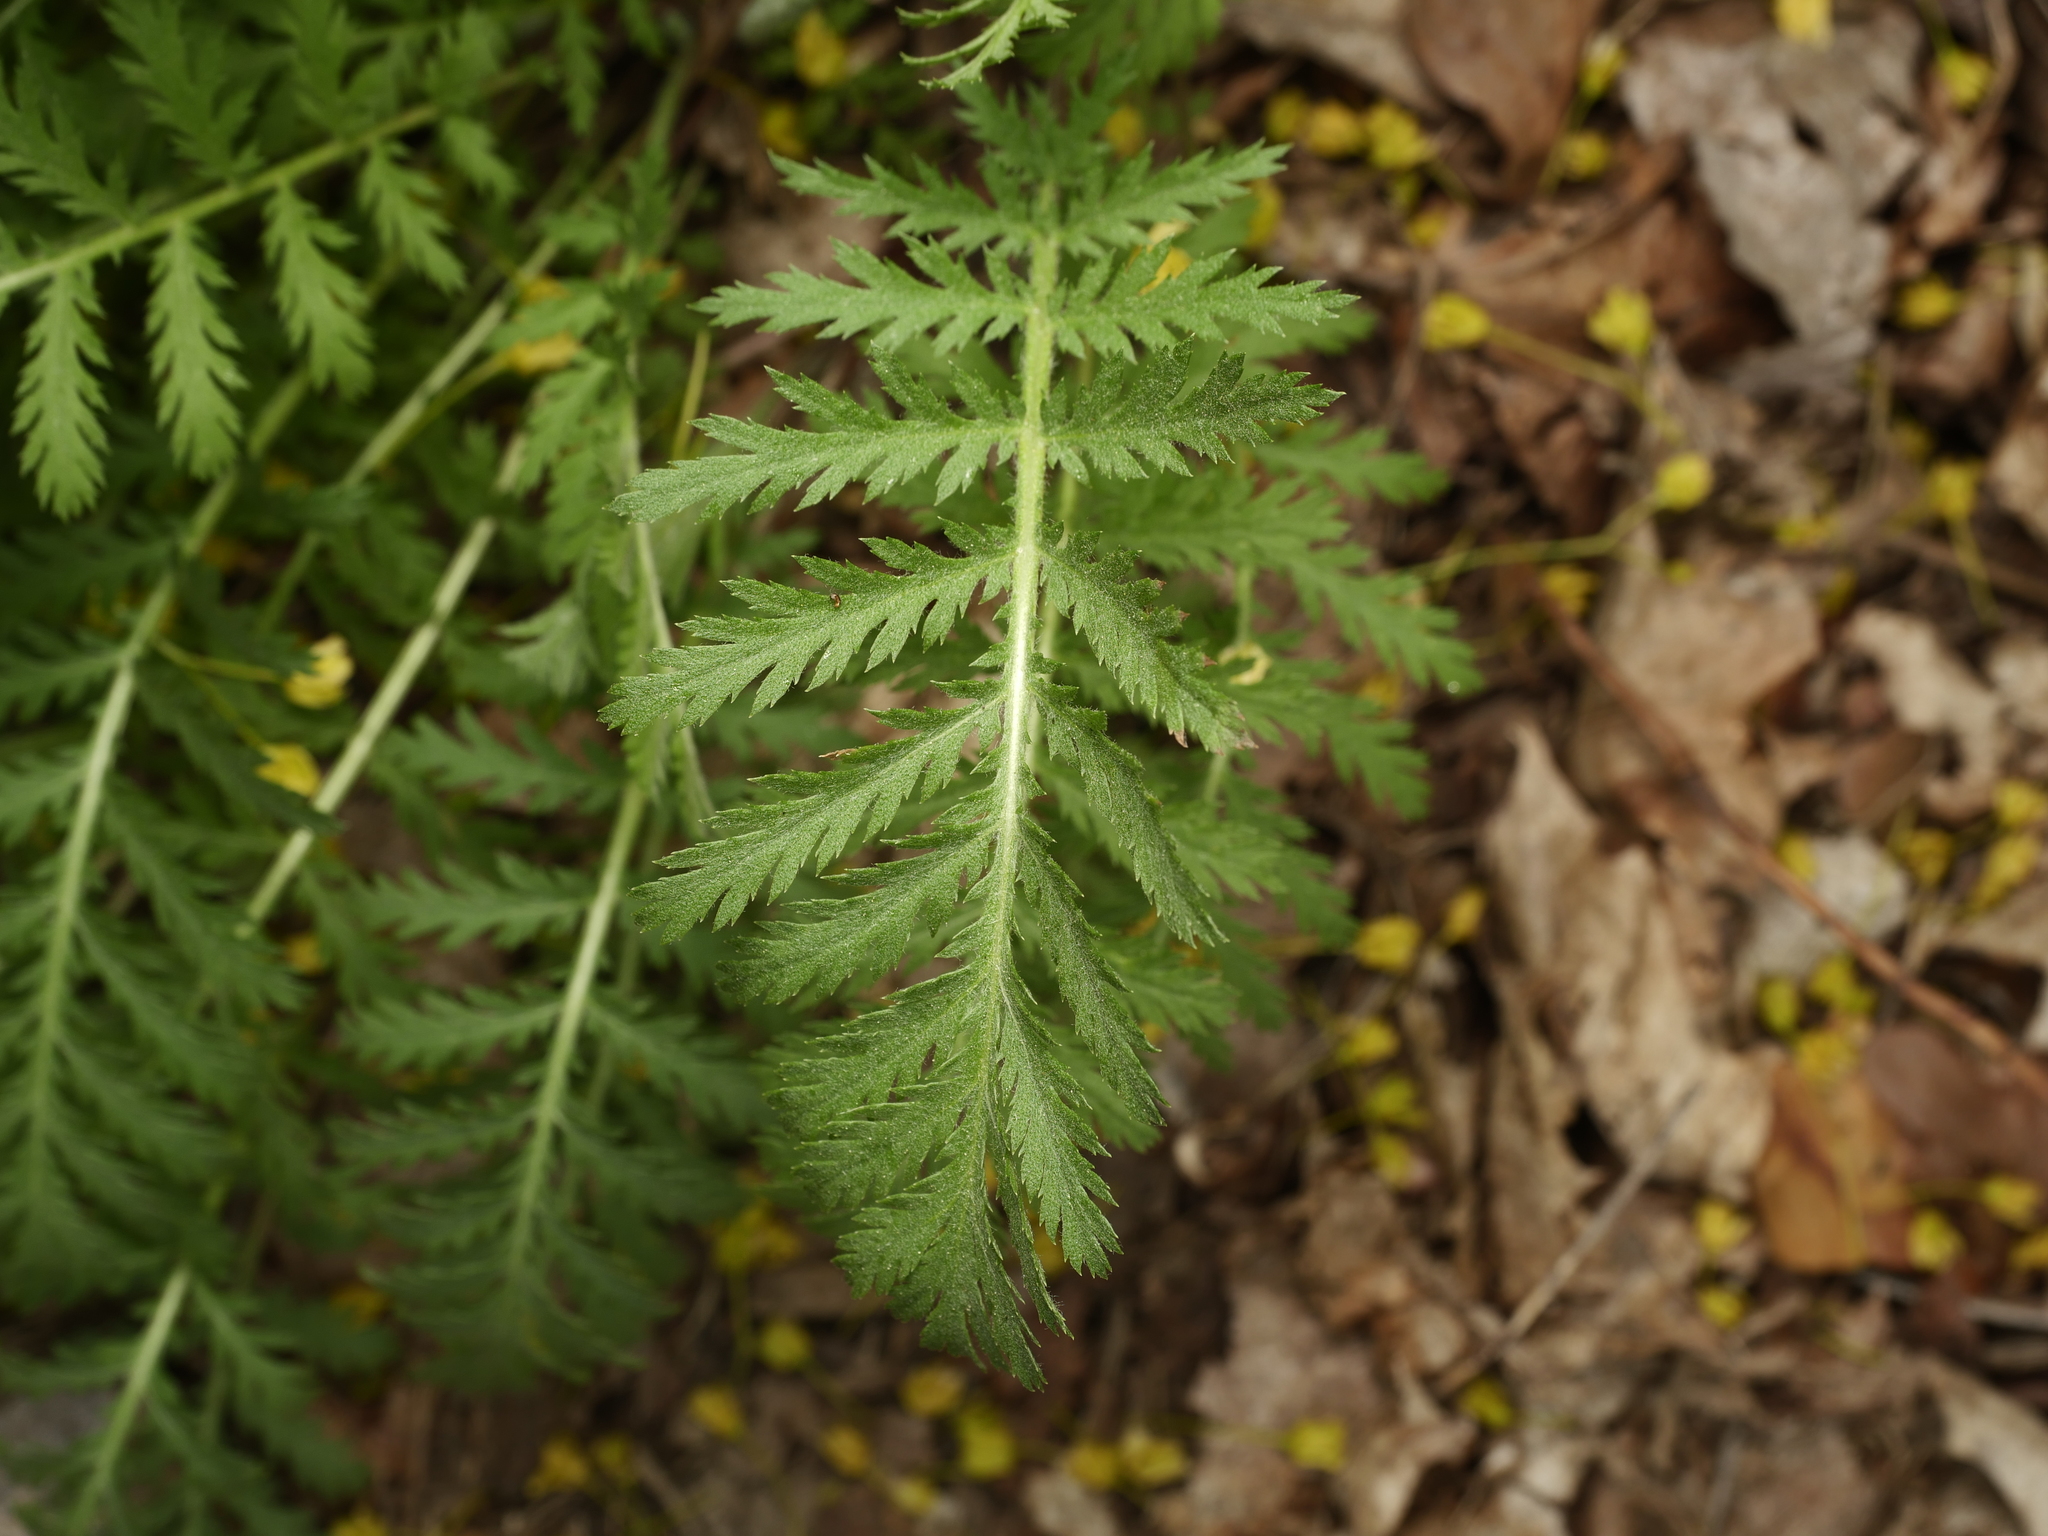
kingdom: Plantae
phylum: Tracheophyta
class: Magnoliopsida
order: Asterales
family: Asteraceae
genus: Tanacetum
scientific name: Tanacetum vulgare
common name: Common tansy
